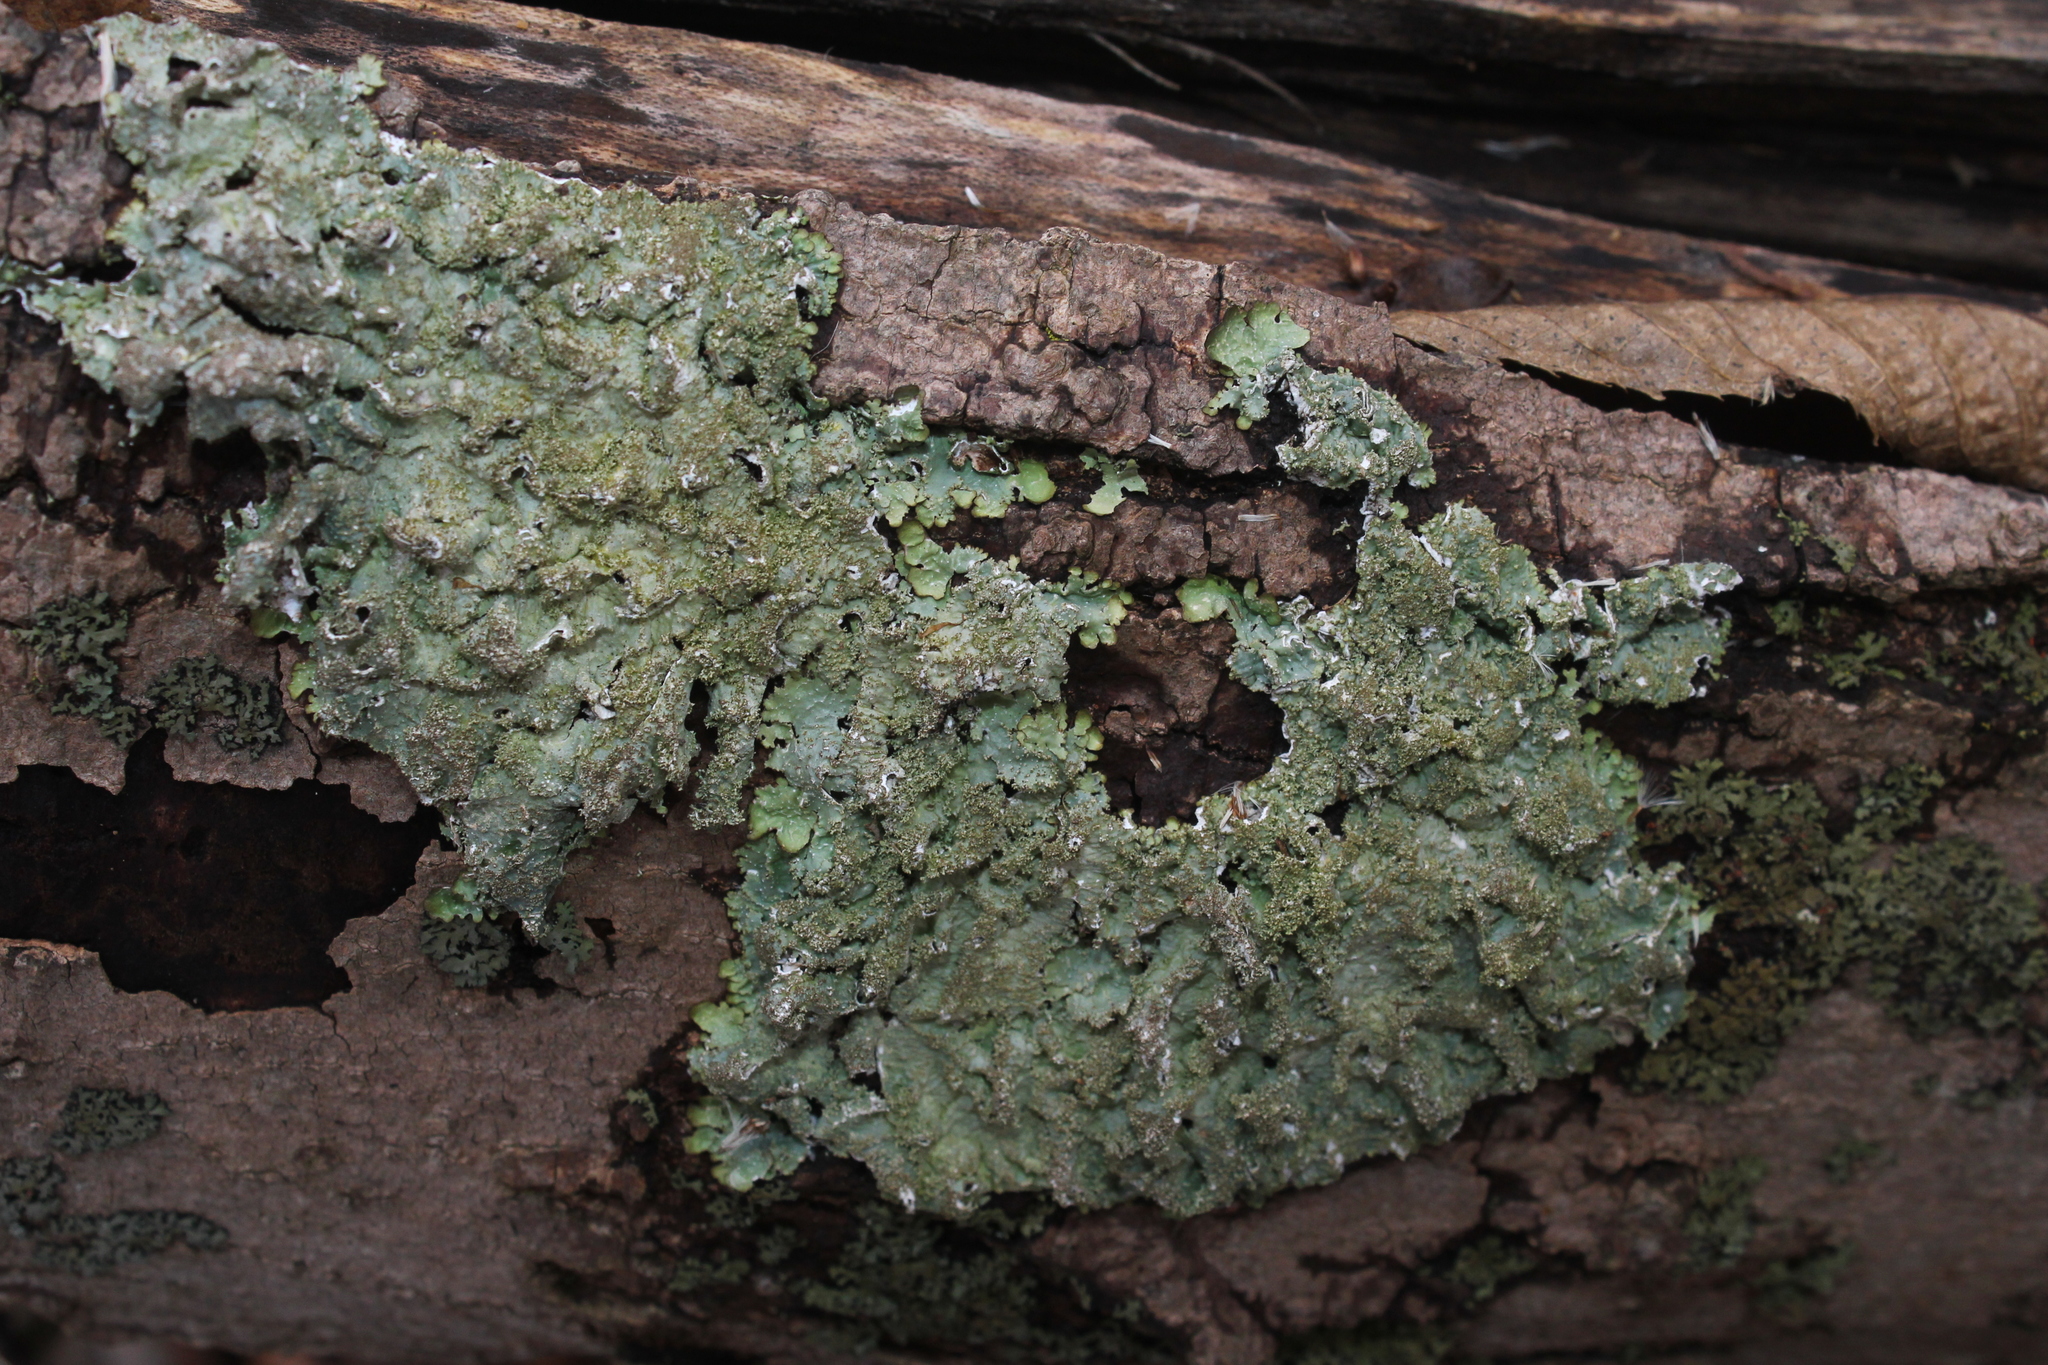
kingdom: Fungi
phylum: Ascomycota
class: Lecanoromycetes
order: Lecanorales
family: Parmeliaceae
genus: Punctelia
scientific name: Punctelia rudecta
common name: Rough speckled shield lichen
